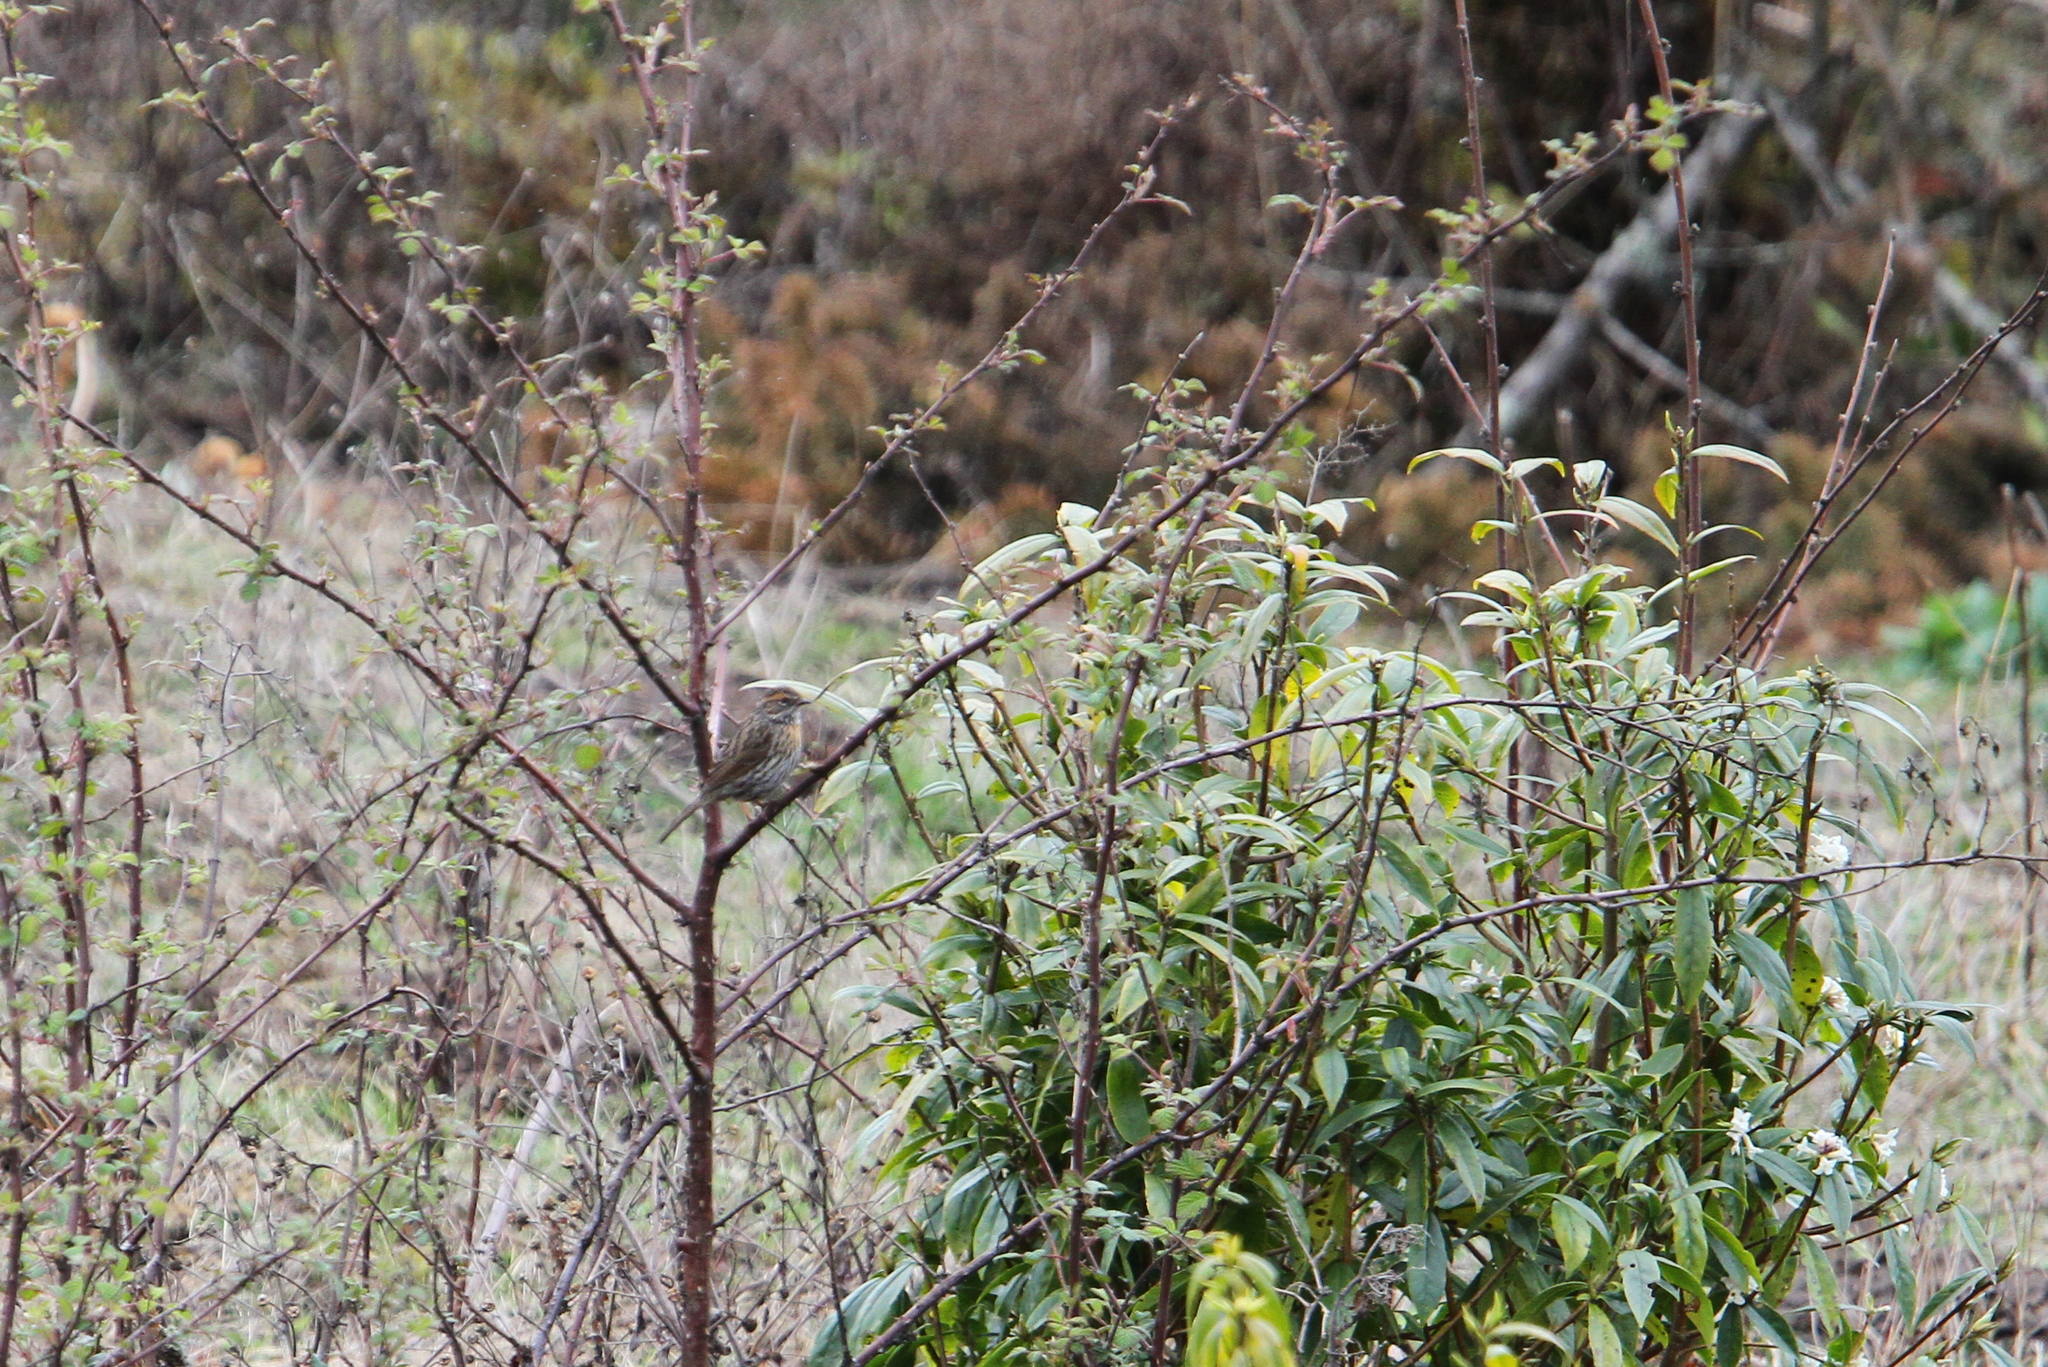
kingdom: Animalia
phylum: Chordata
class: Aves
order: Passeriformes
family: Prunellidae
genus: Prunella
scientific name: Prunella strophiata
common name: Rufous-breasted accentor
